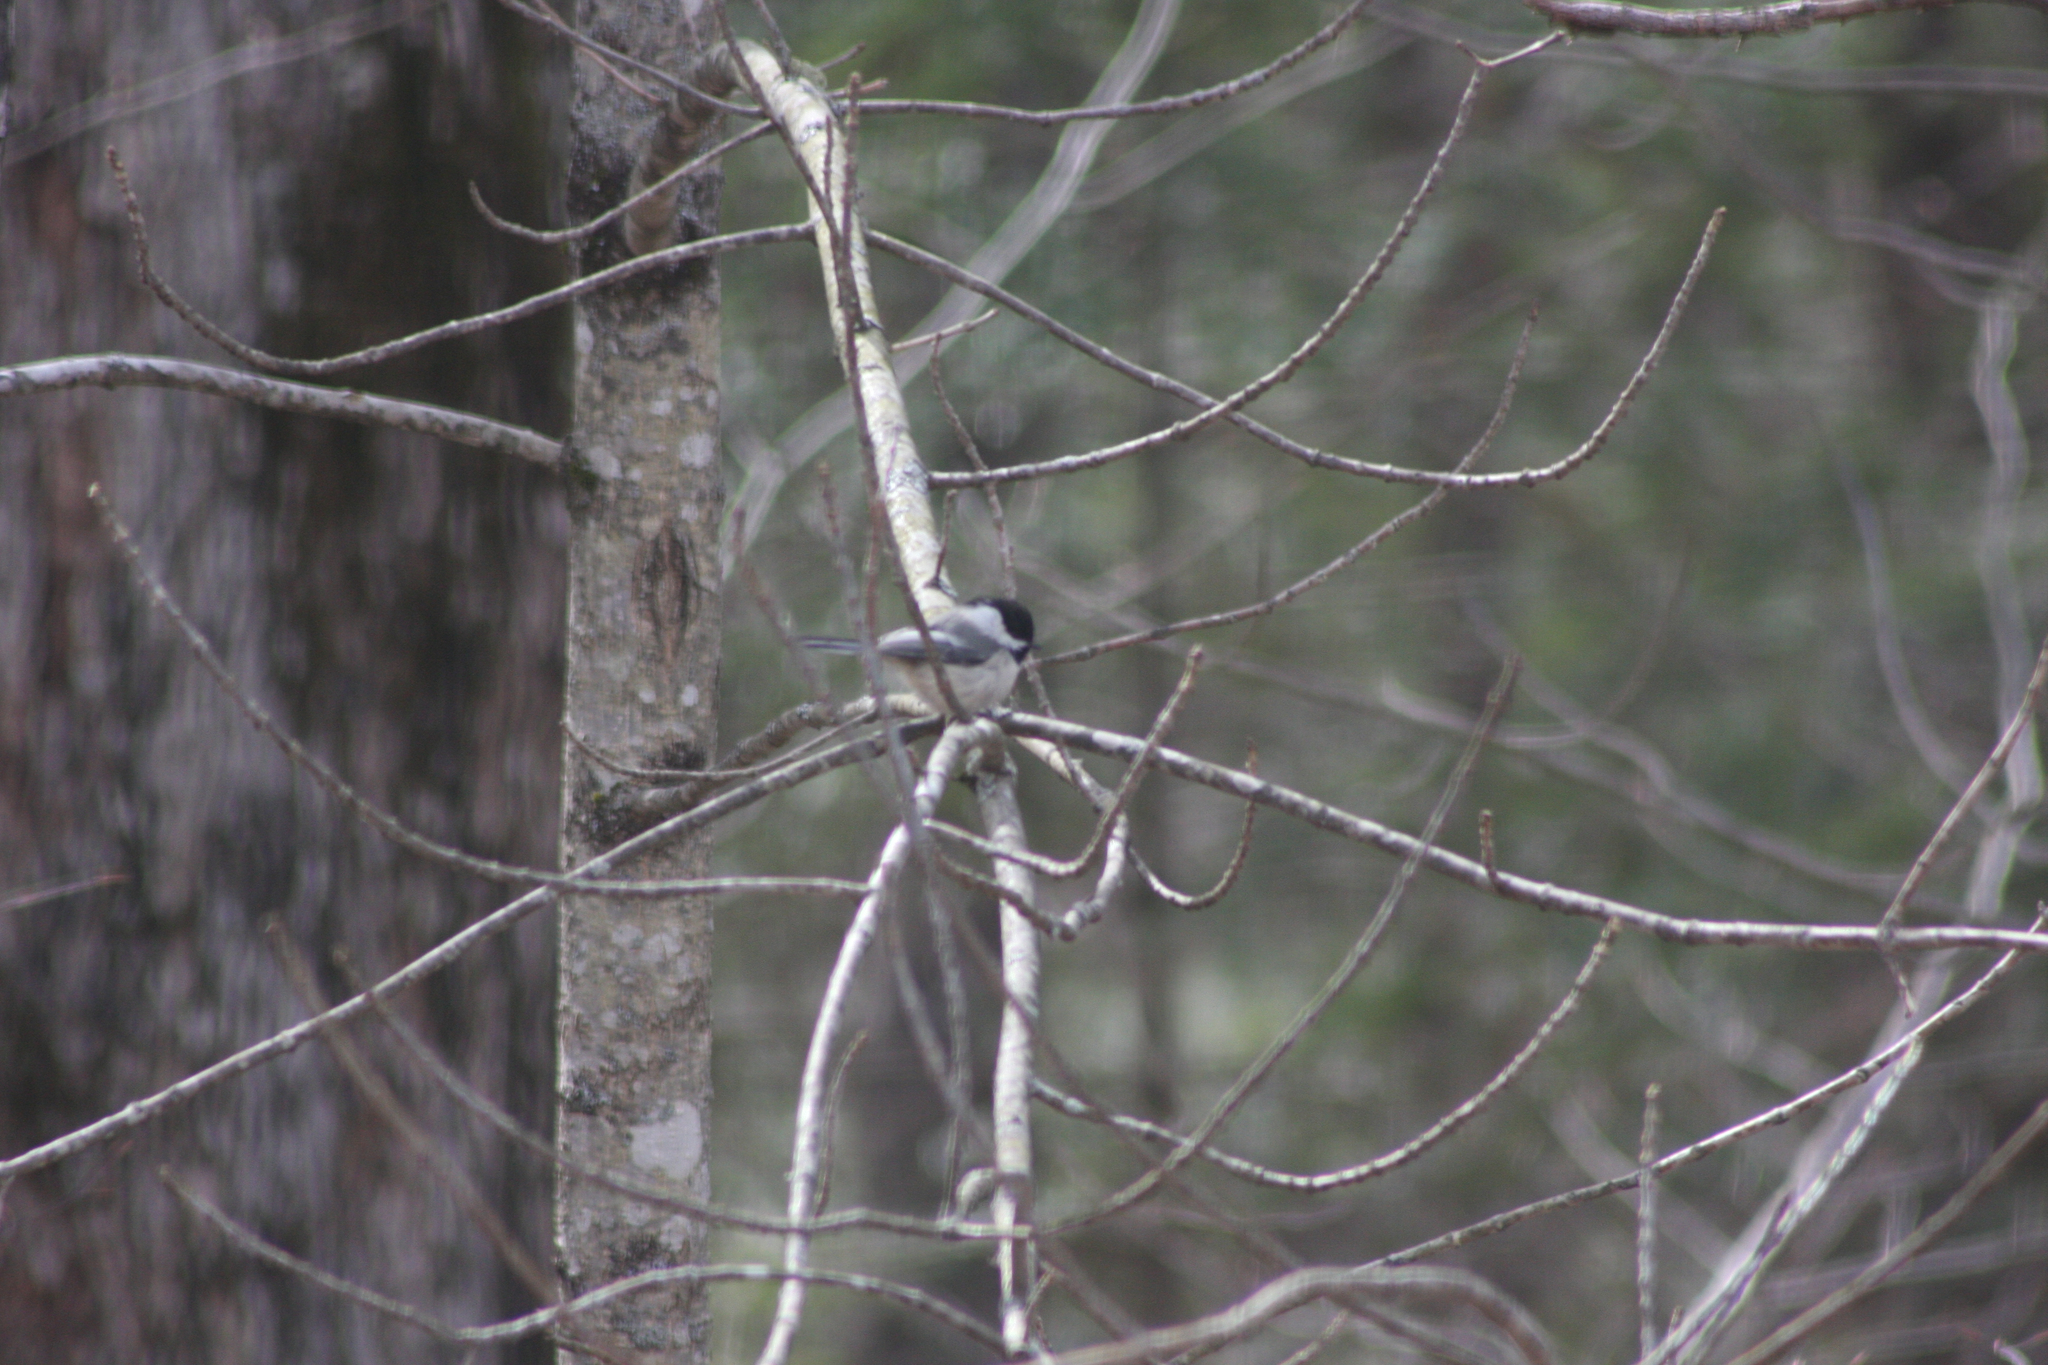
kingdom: Animalia
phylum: Chordata
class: Aves
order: Passeriformes
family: Paridae
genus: Poecile
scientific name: Poecile atricapillus
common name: Black-capped chickadee
